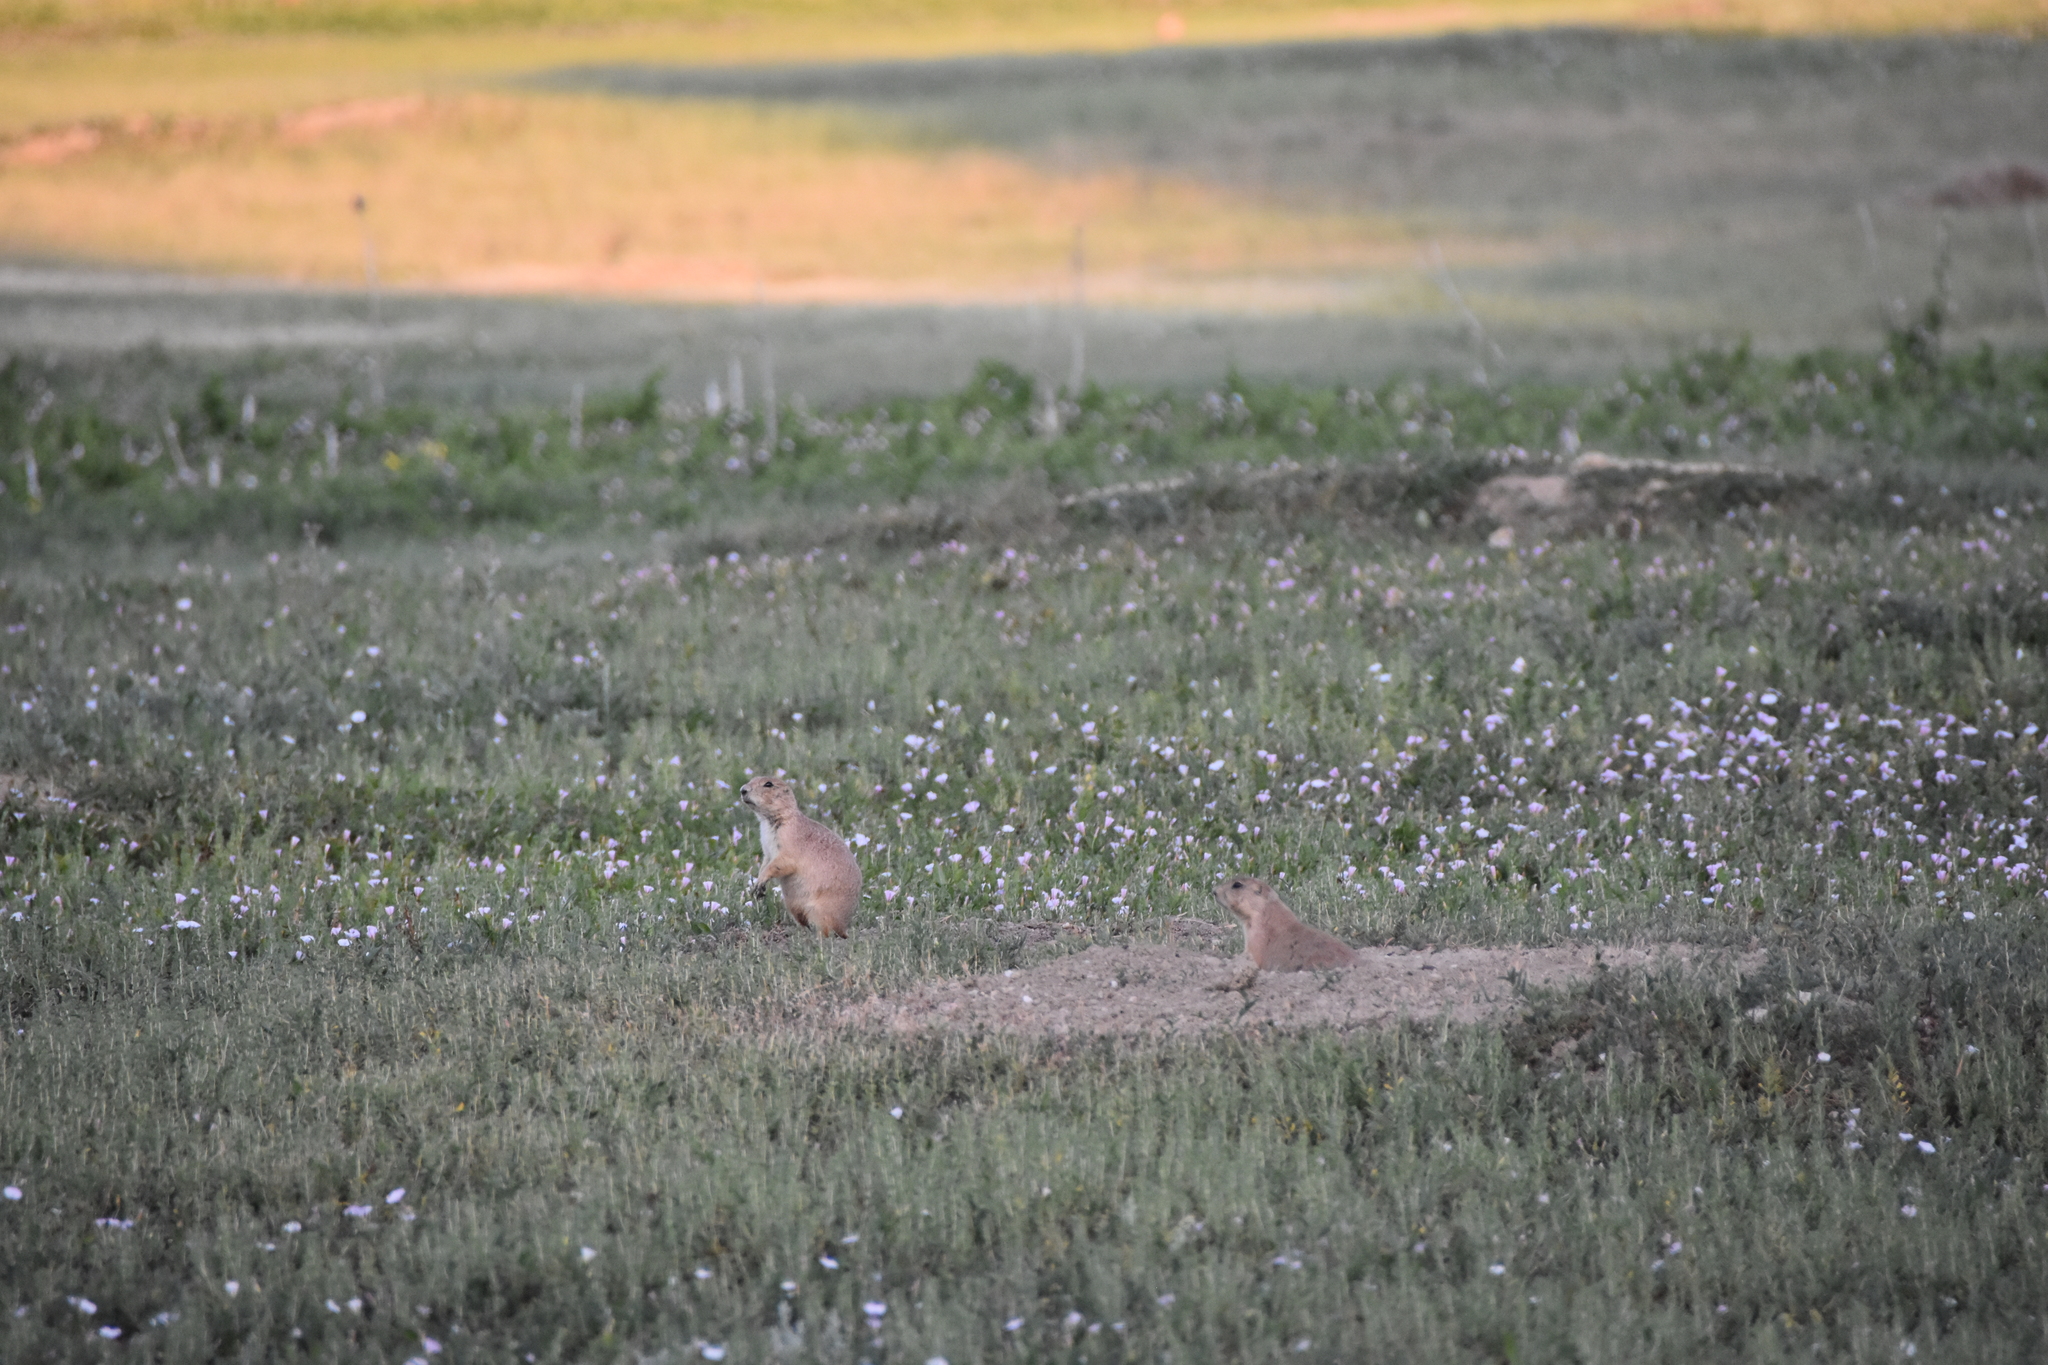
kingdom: Animalia
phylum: Chordata
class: Mammalia
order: Rodentia
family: Sciuridae
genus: Cynomys
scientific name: Cynomys ludovicianus
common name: Black-tailed prairie dog
